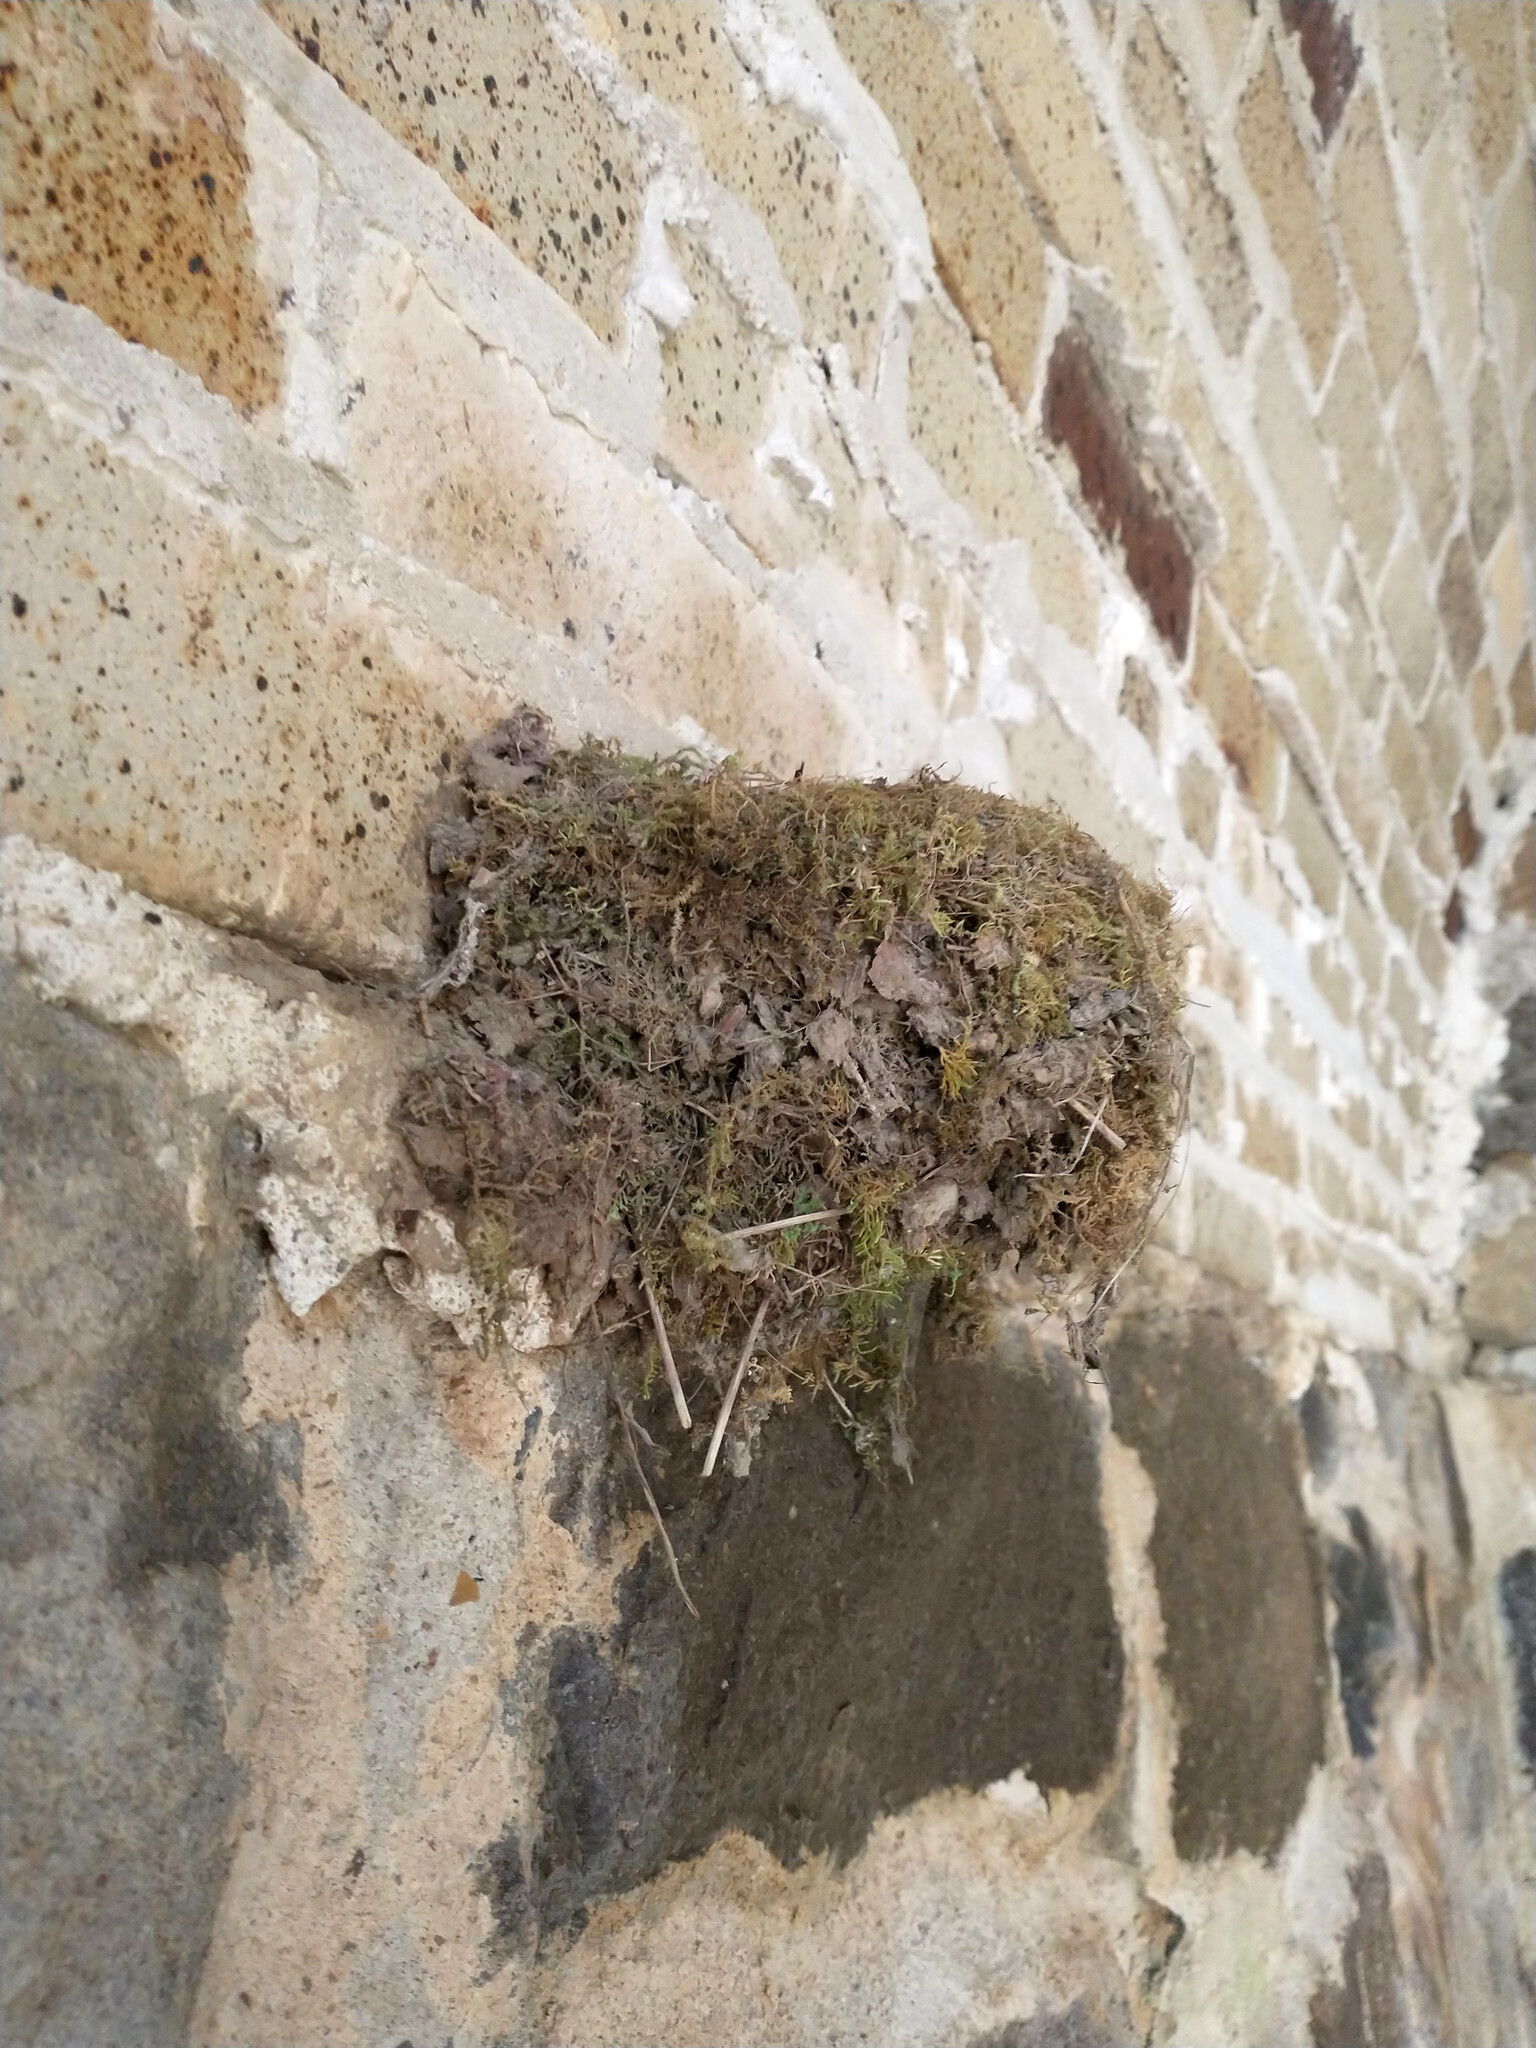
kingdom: Animalia
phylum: Chordata
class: Aves
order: Passeriformes
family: Tyrannidae
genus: Sayornis
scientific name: Sayornis phoebe
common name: Eastern phoebe
